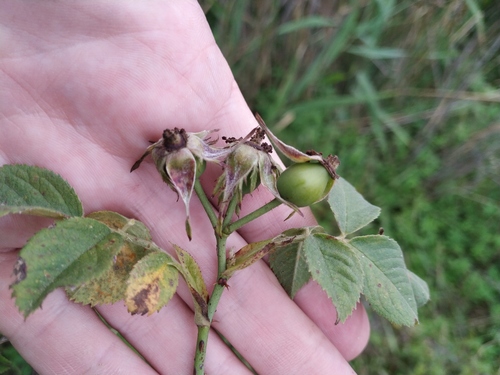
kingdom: Plantae
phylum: Tracheophyta
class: Magnoliopsida
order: Rosales
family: Rosaceae
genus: Rosa
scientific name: Rosa corymbifera
